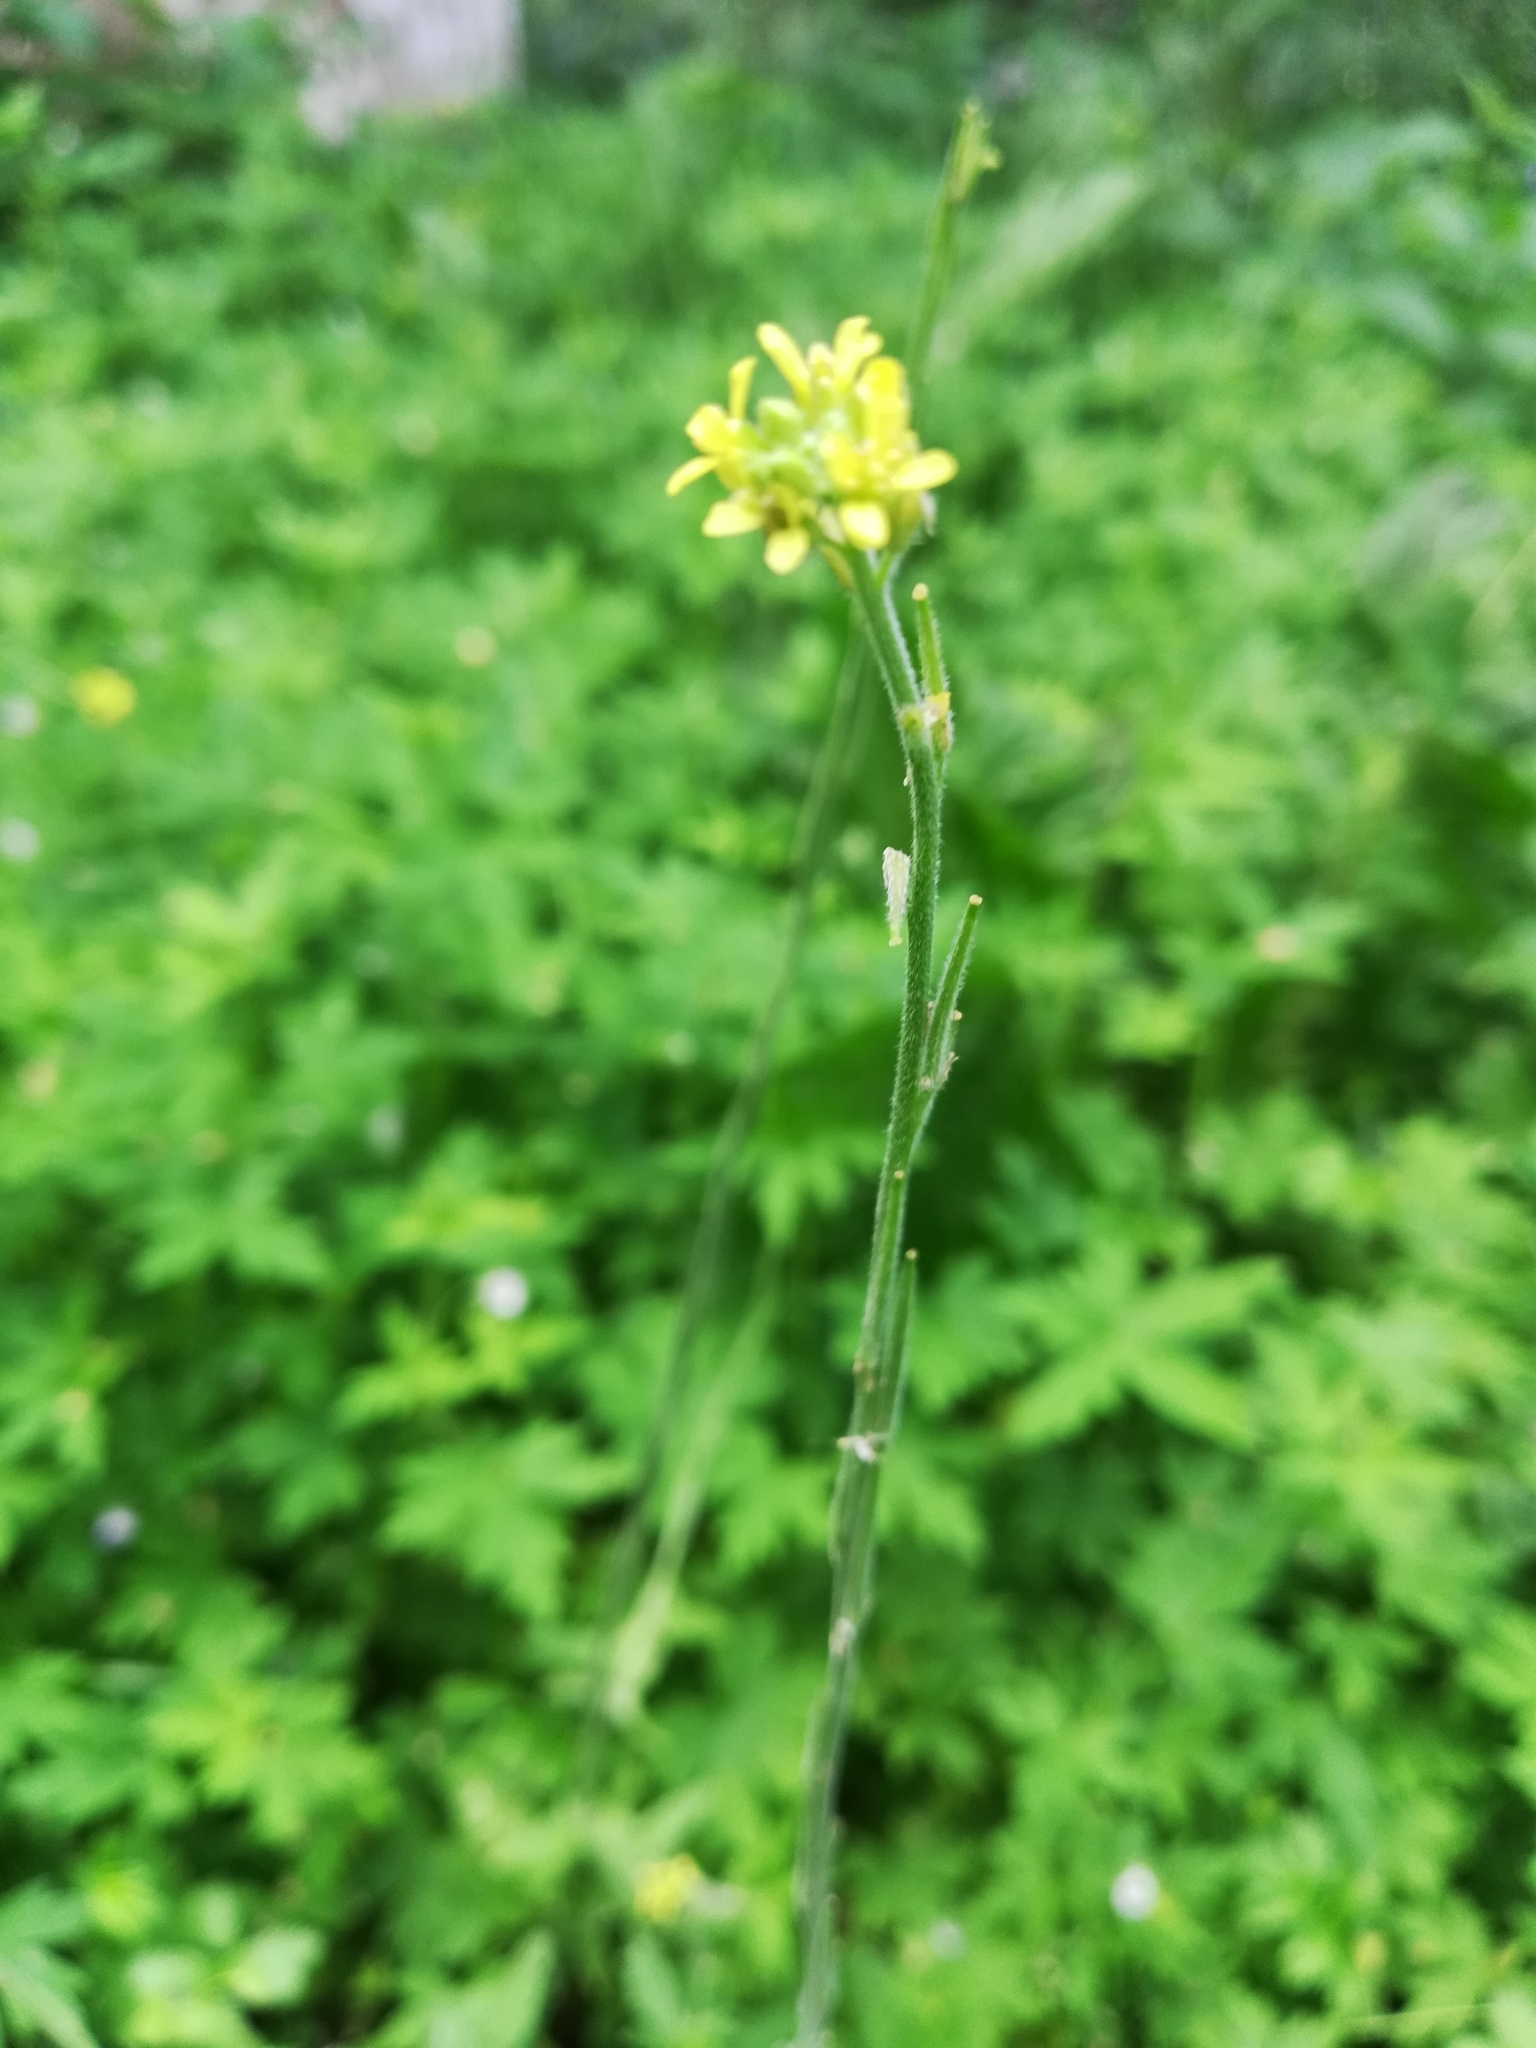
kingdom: Plantae
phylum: Tracheophyta
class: Magnoliopsida
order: Brassicales
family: Brassicaceae
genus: Sisymbrium
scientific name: Sisymbrium officinale
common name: Hedge mustard
